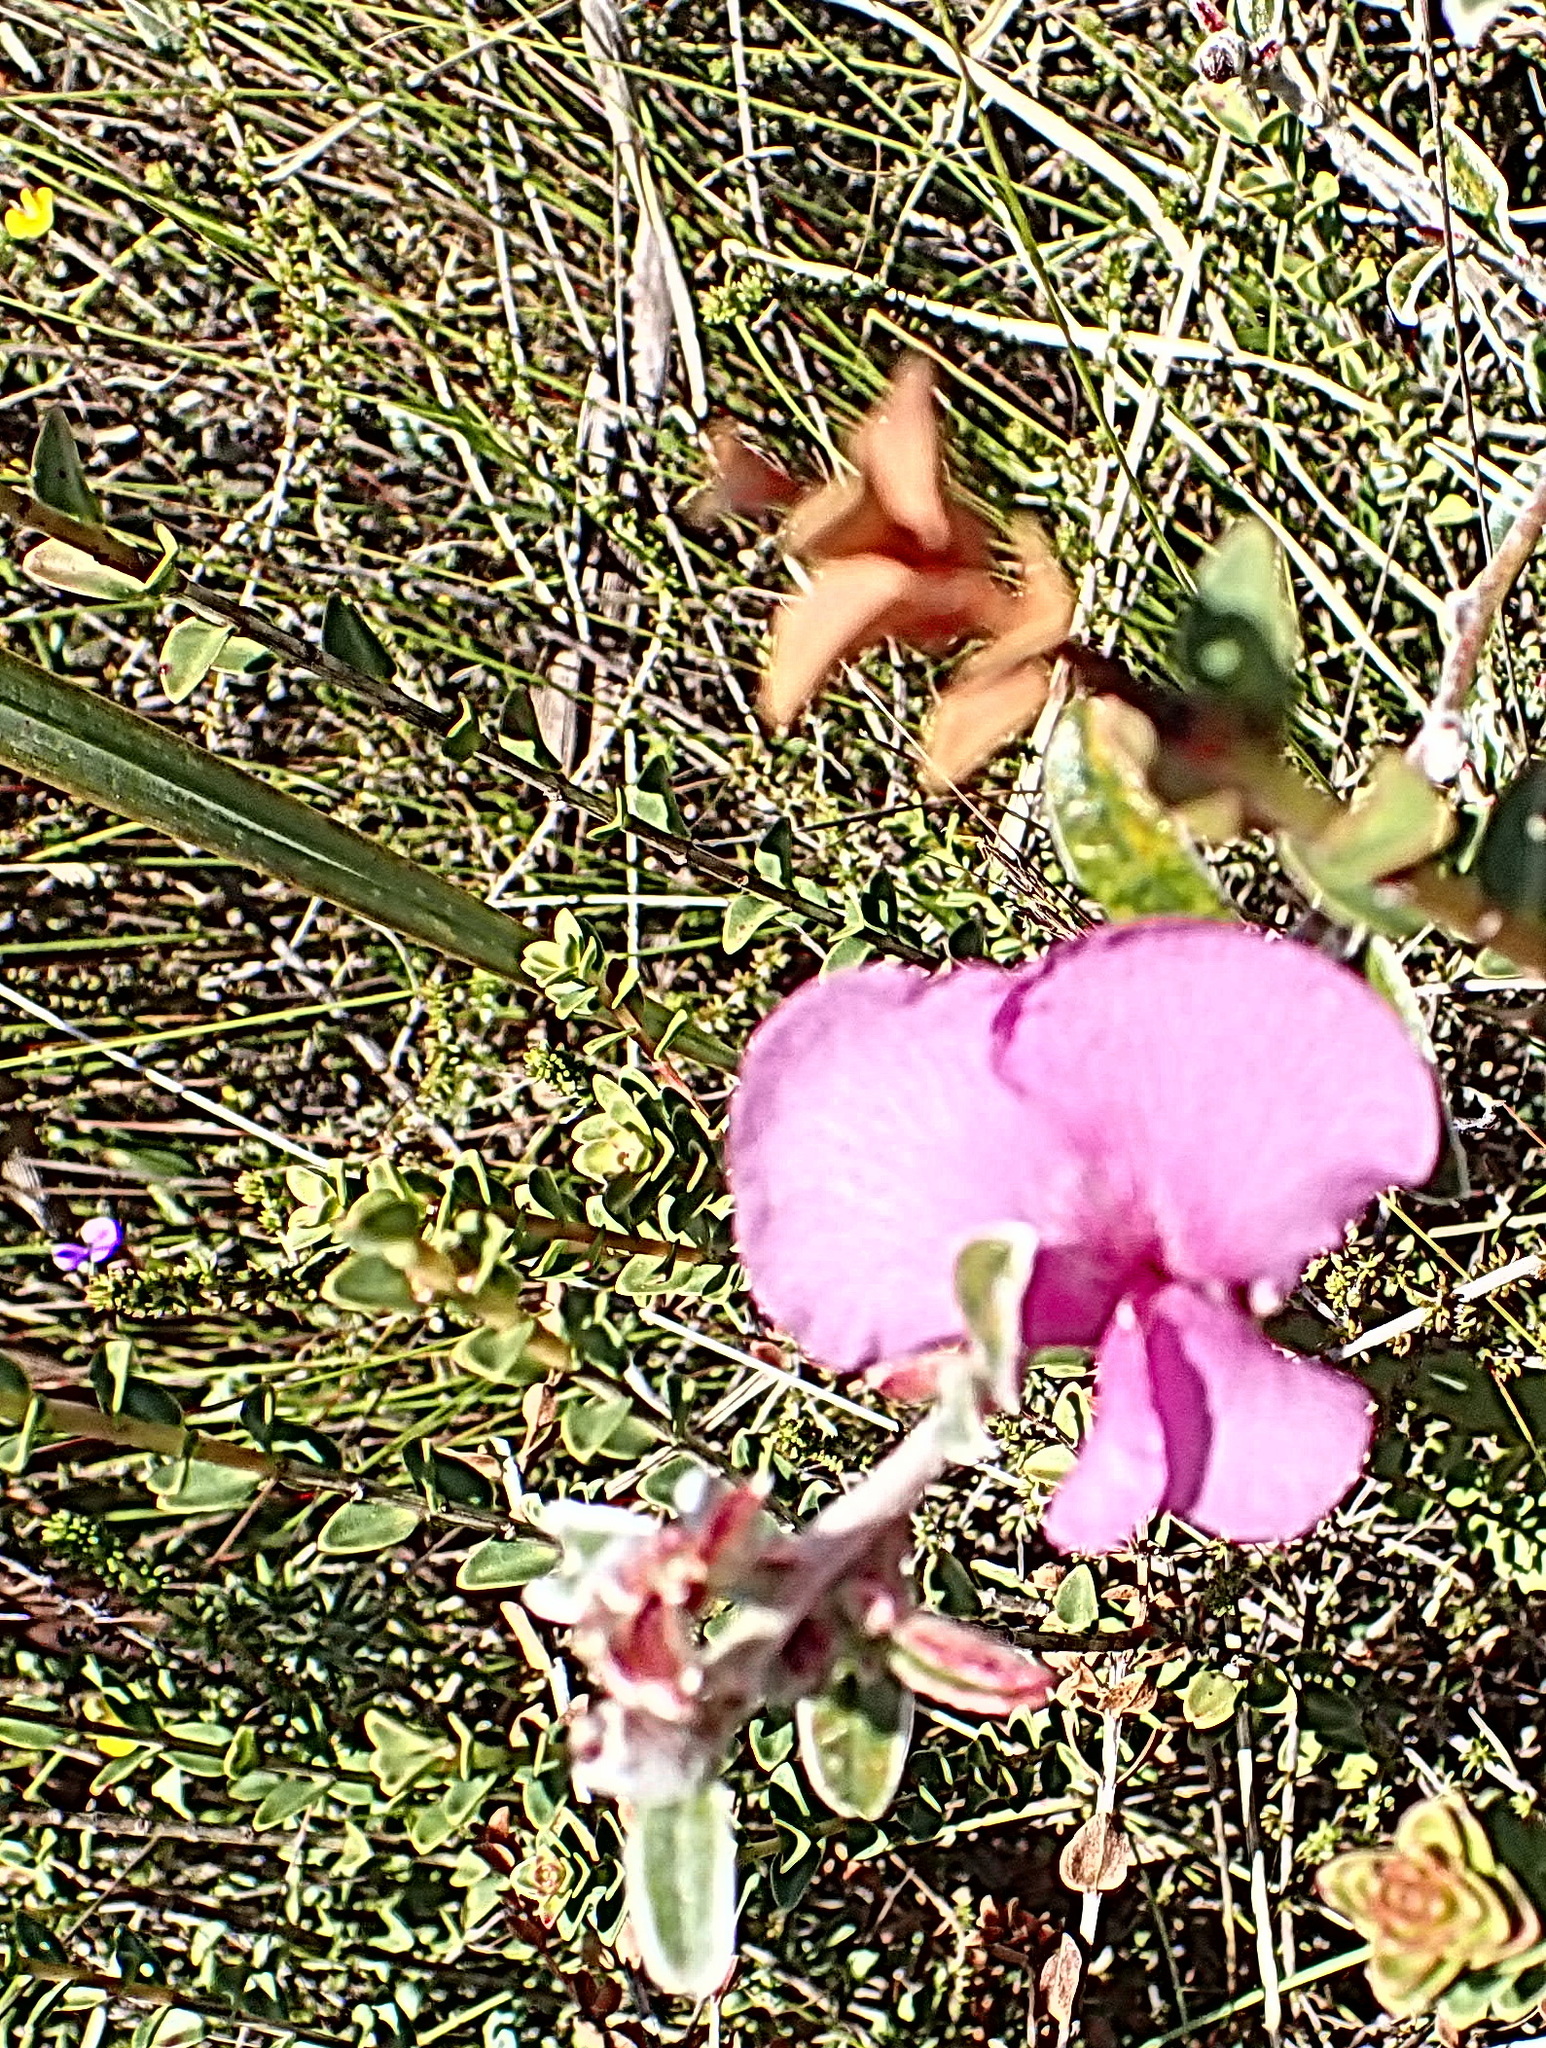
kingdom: Plantae
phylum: Tracheophyta
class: Magnoliopsida
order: Fabales
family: Fabaceae
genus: Podalyria
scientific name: Podalyria burchellii
